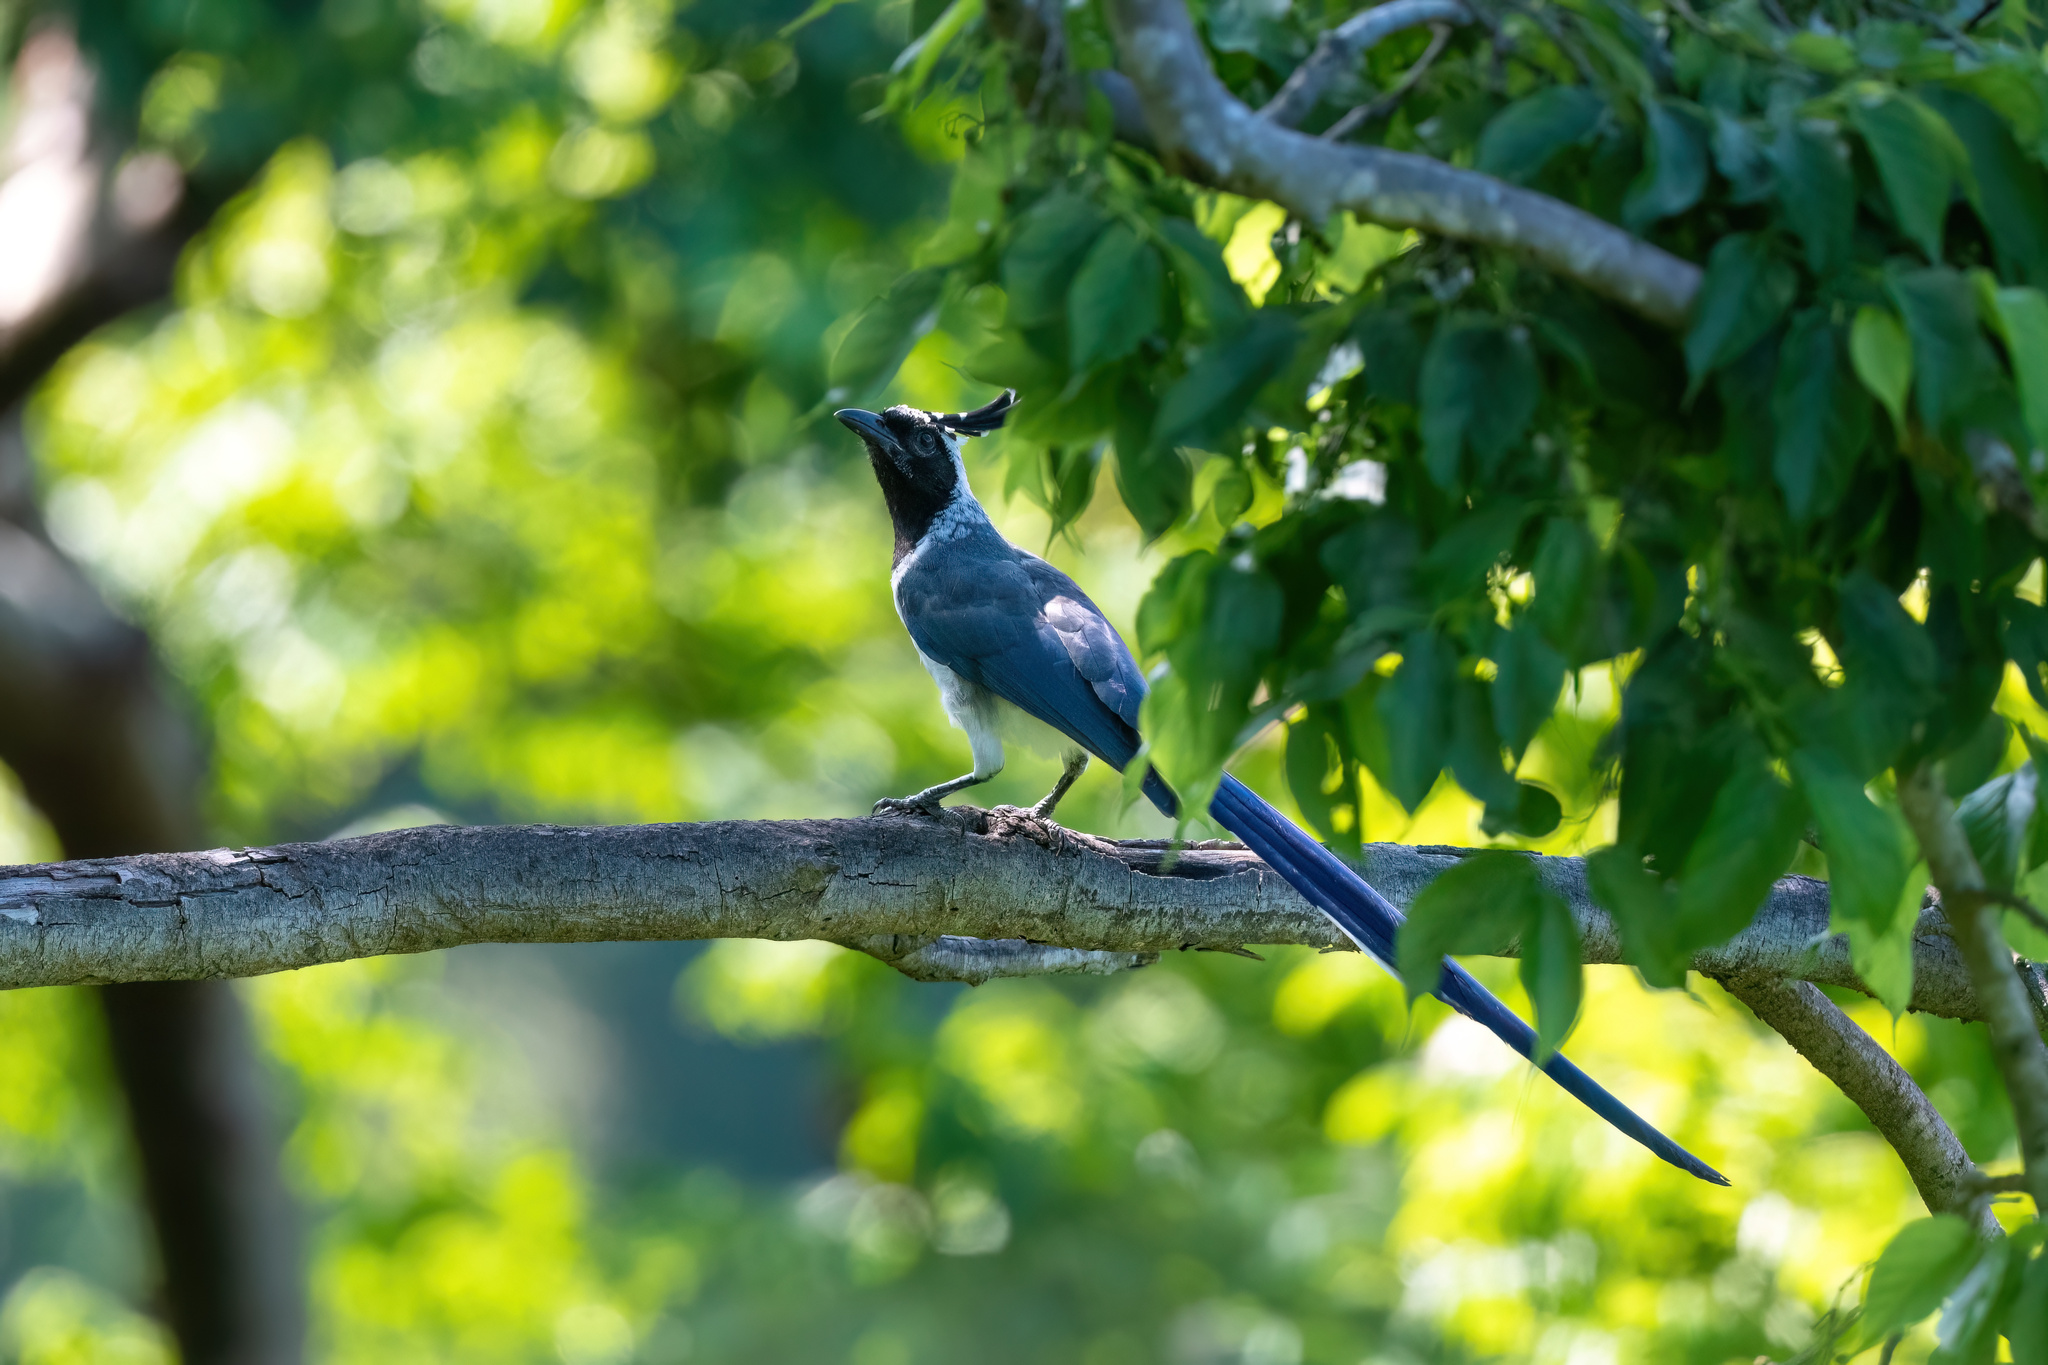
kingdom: Animalia
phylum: Chordata
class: Aves
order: Passeriformes
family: Corvidae
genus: Calocitta
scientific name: Calocitta colliei
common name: Black-throated magpie-jay
